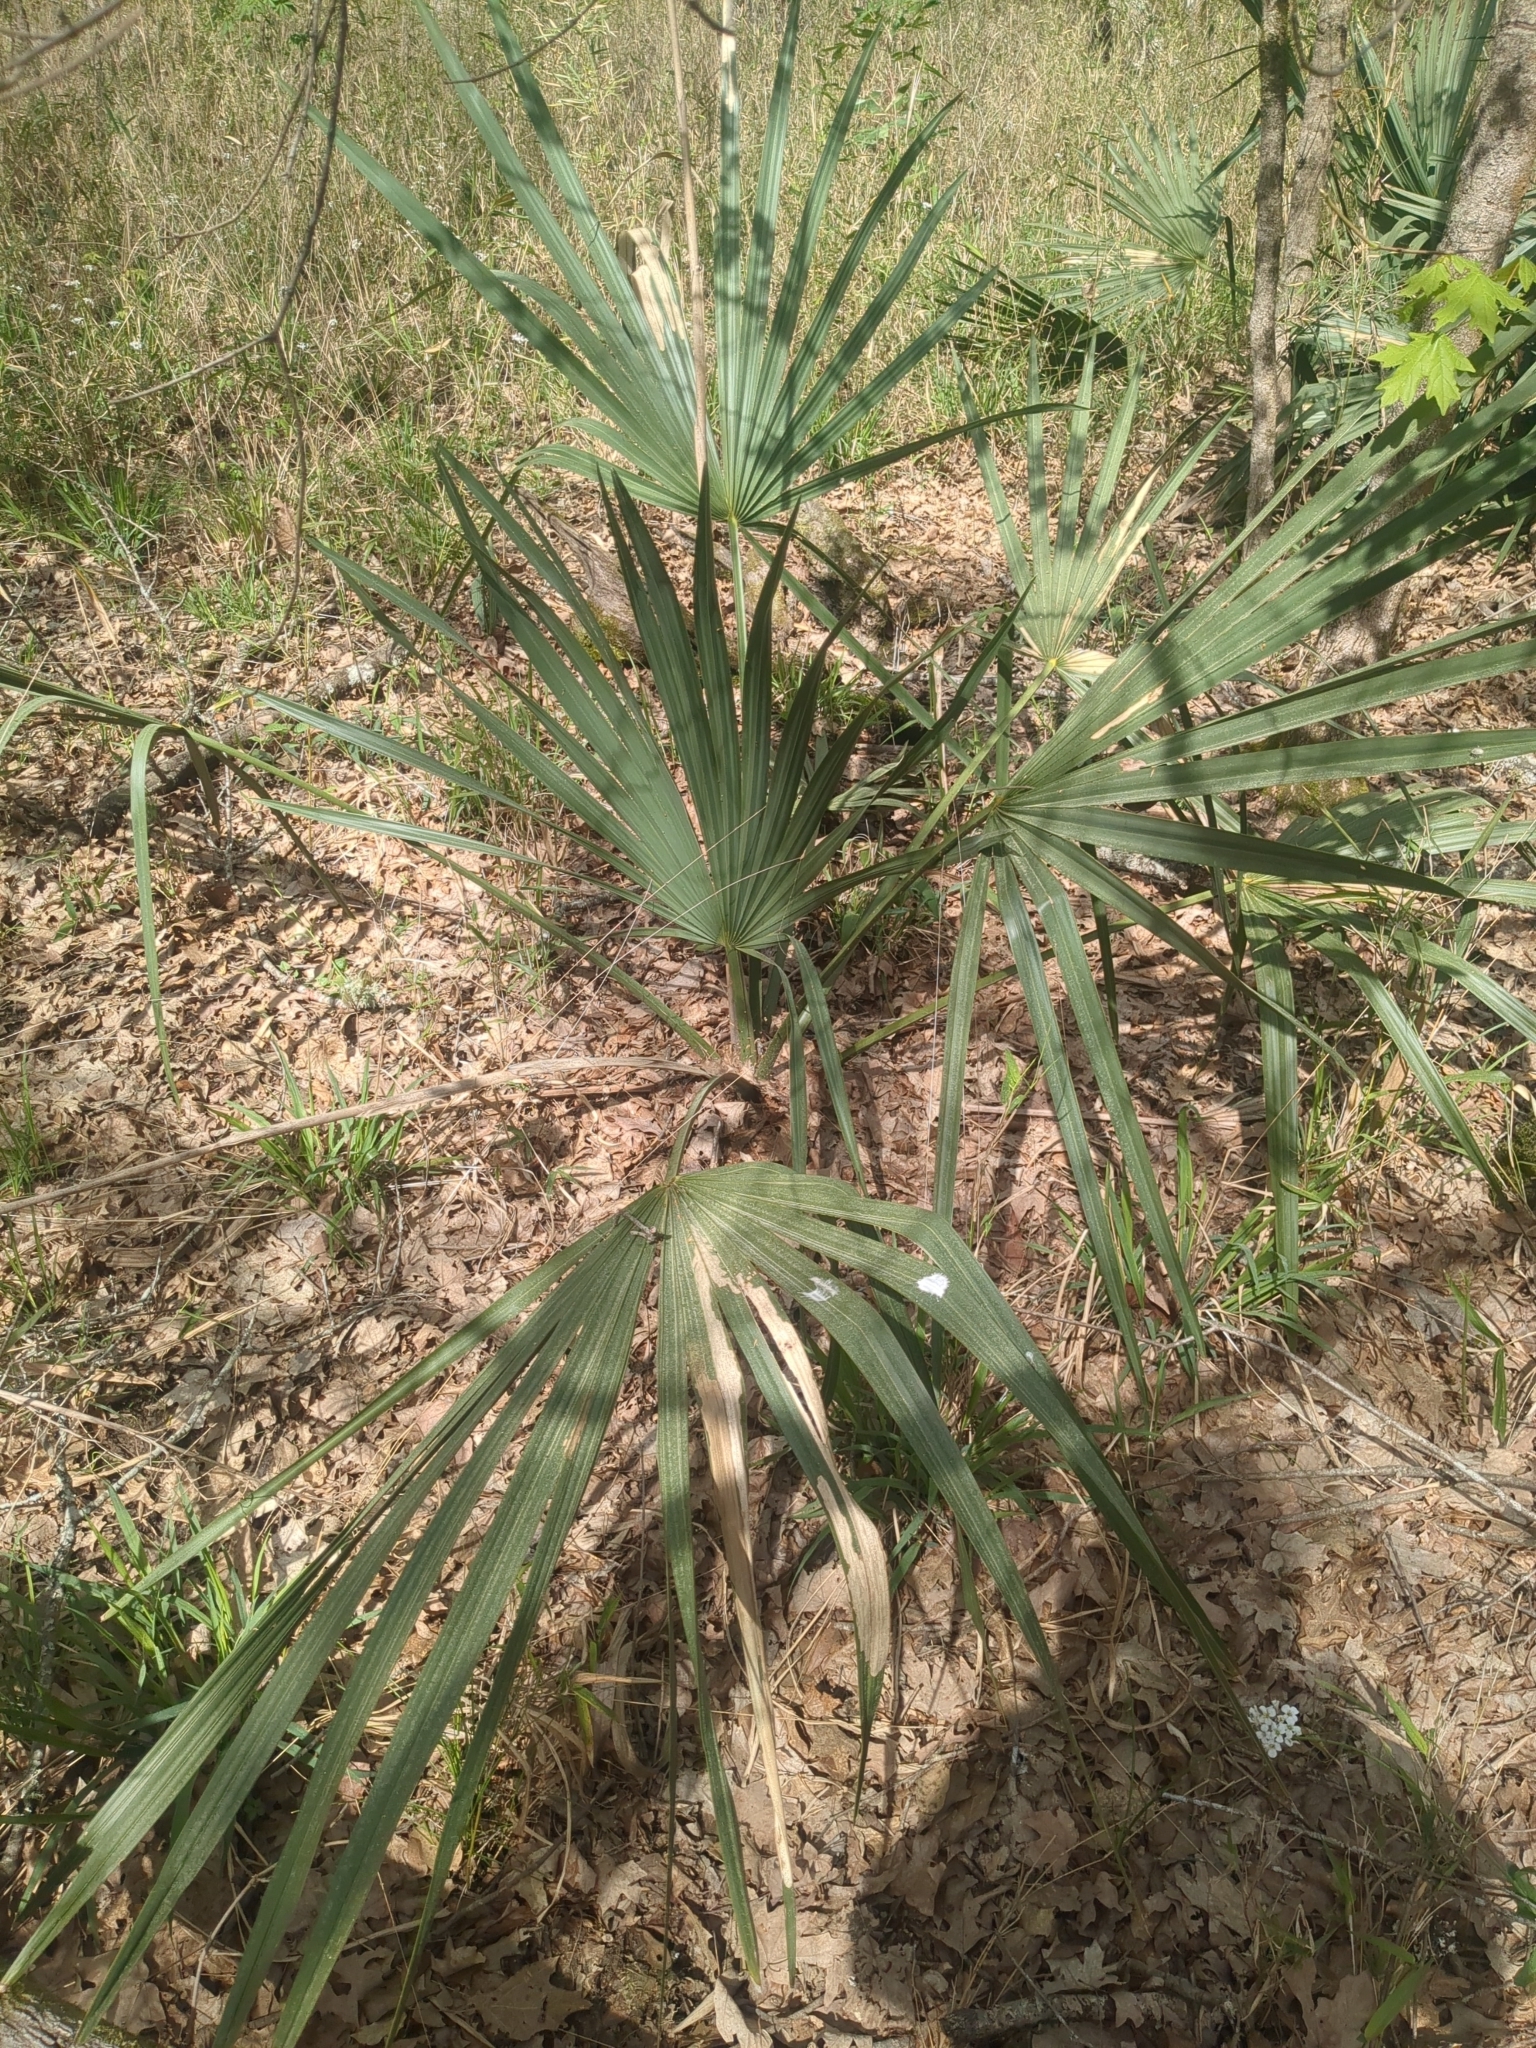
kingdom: Plantae
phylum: Tracheophyta
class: Liliopsida
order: Arecales
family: Arecaceae
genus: Sabal
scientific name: Sabal minor
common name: Dwarf palmetto
